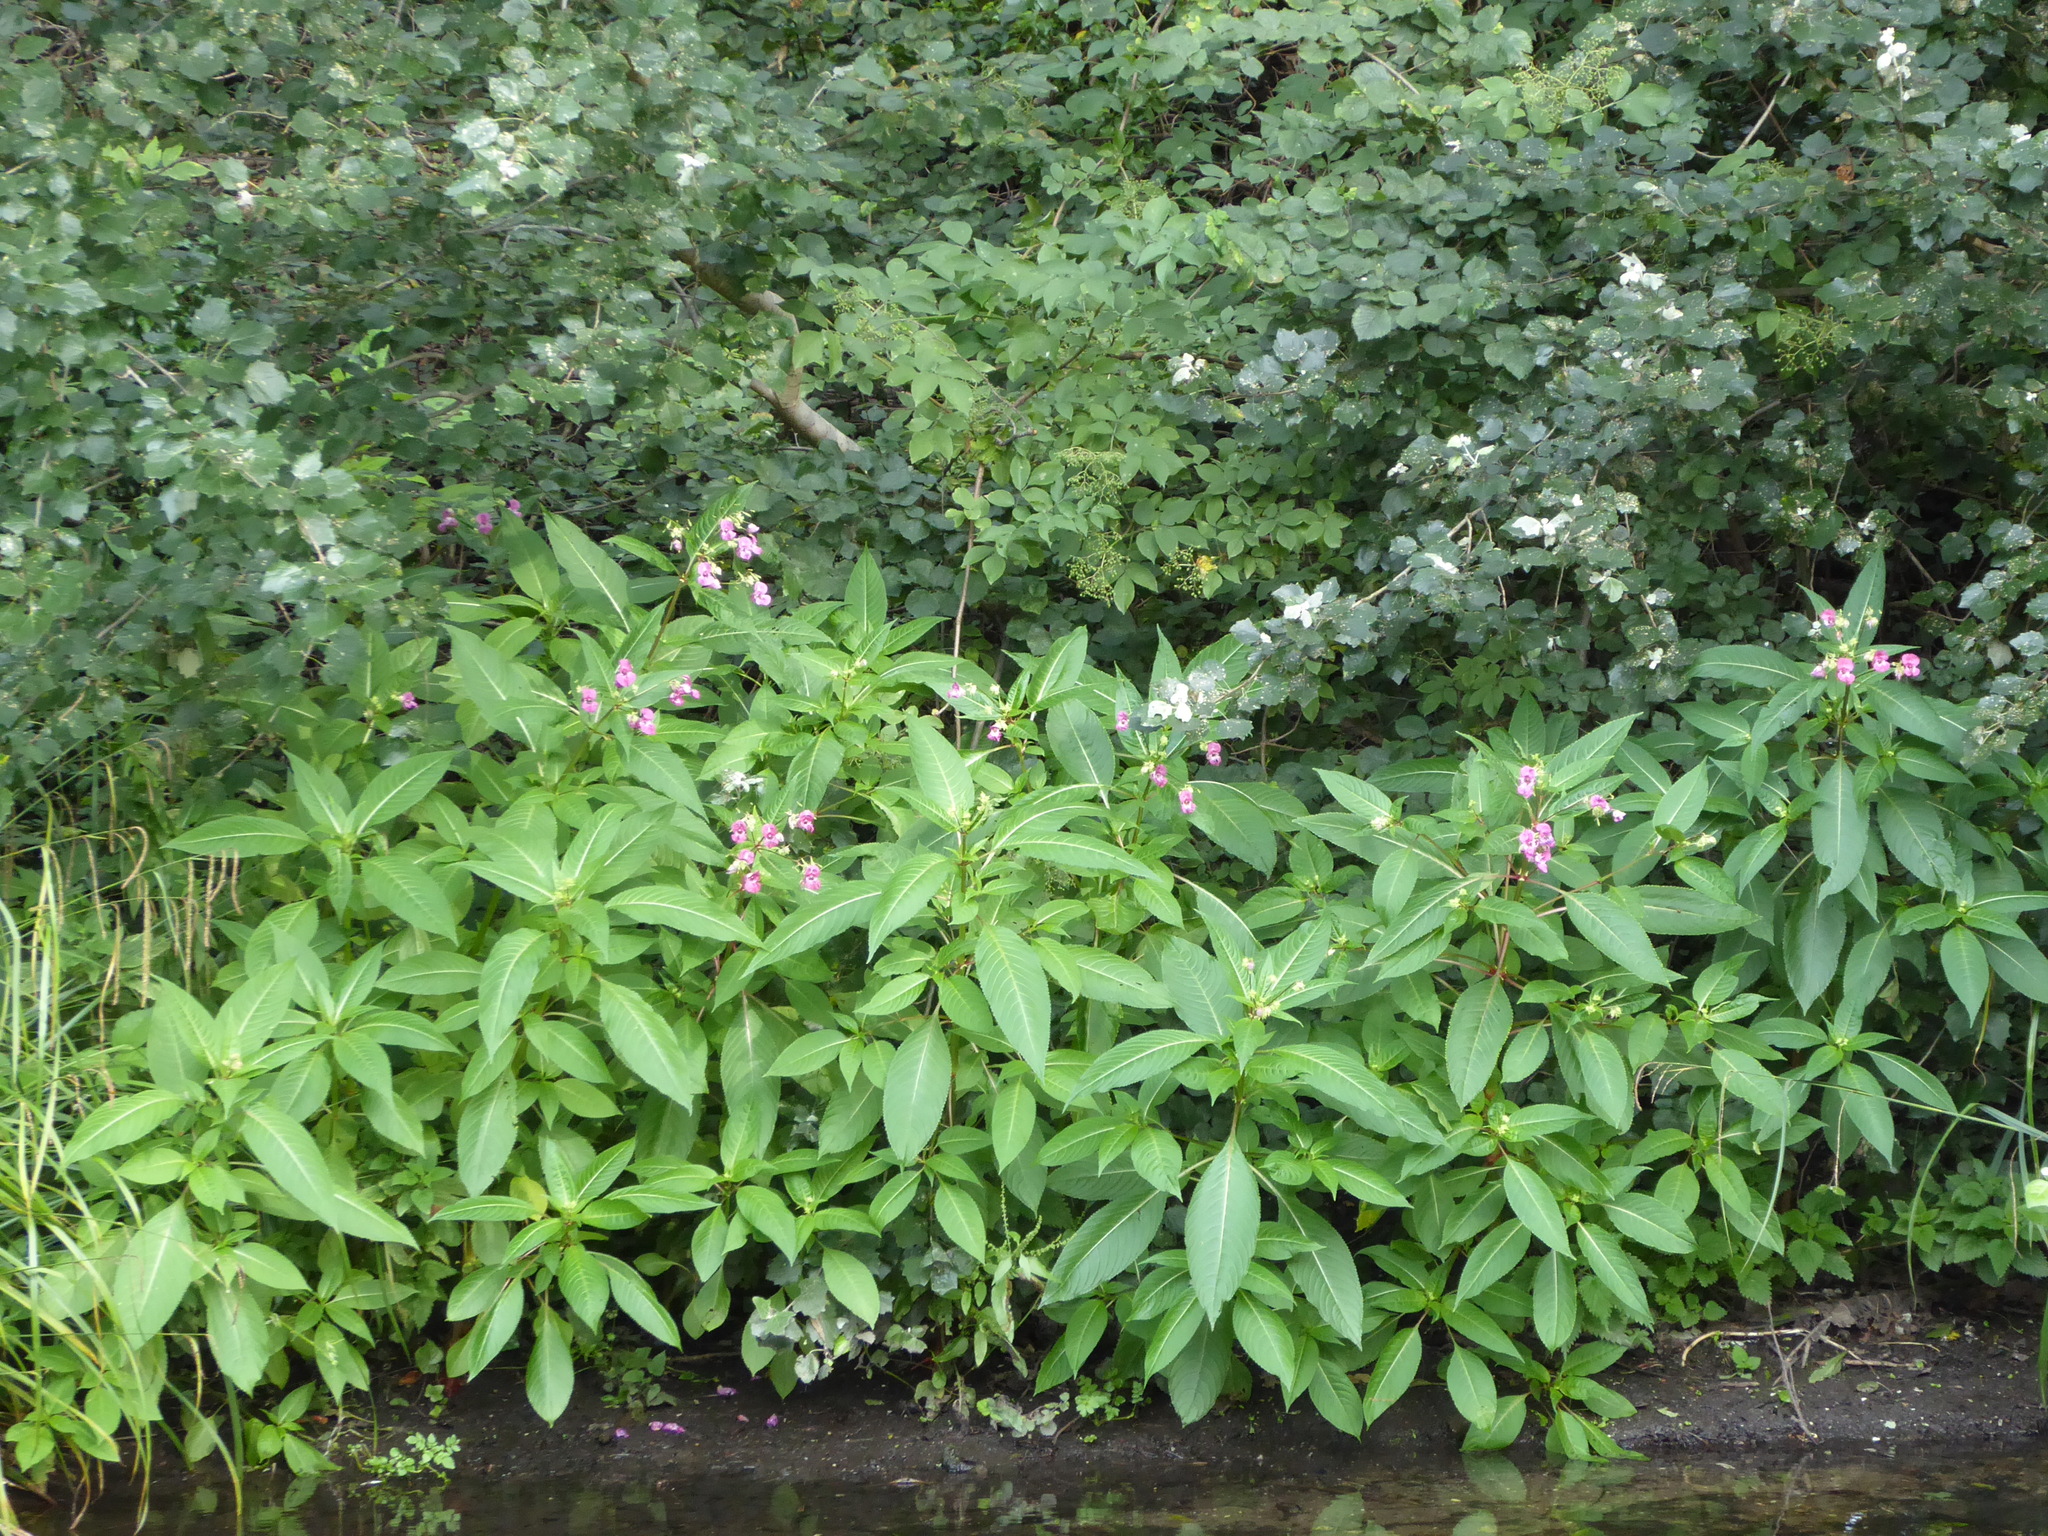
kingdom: Plantae
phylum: Tracheophyta
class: Magnoliopsida
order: Ericales
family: Balsaminaceae
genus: Impatiens
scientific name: Impatiens glandulifera
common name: Himalayan balsam
